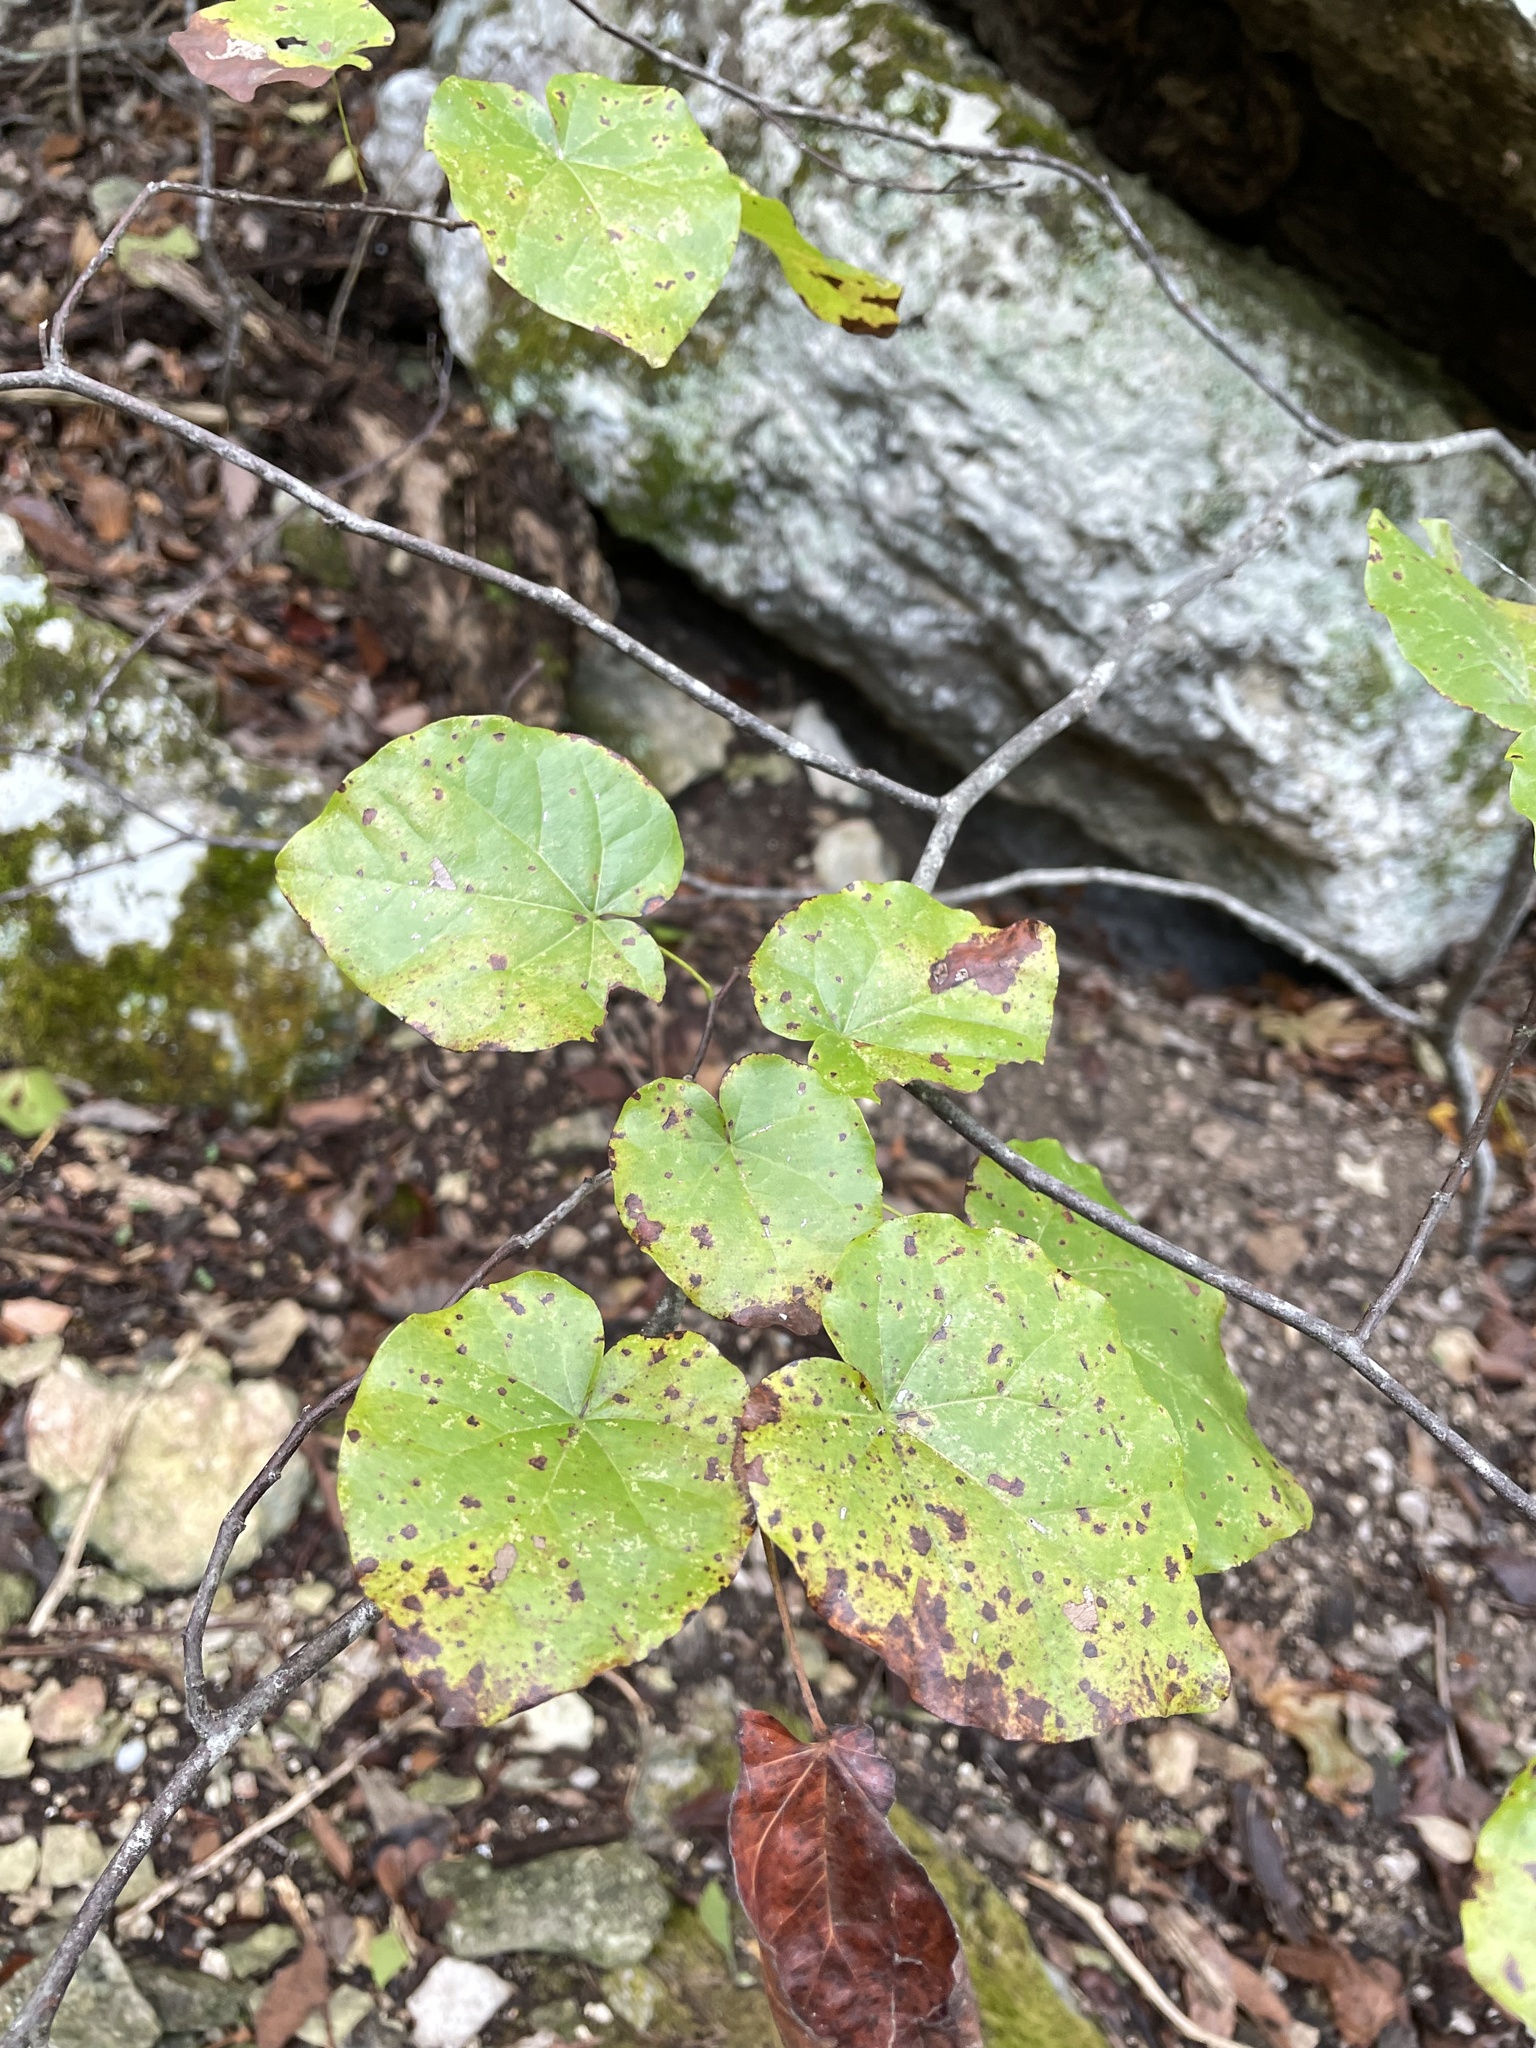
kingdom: Plantae
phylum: Tracheophyta
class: Magnoliopsida
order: Fabales
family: Fabaceae
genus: Cercis
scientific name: Cercis canadensis
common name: Eastern redbud
